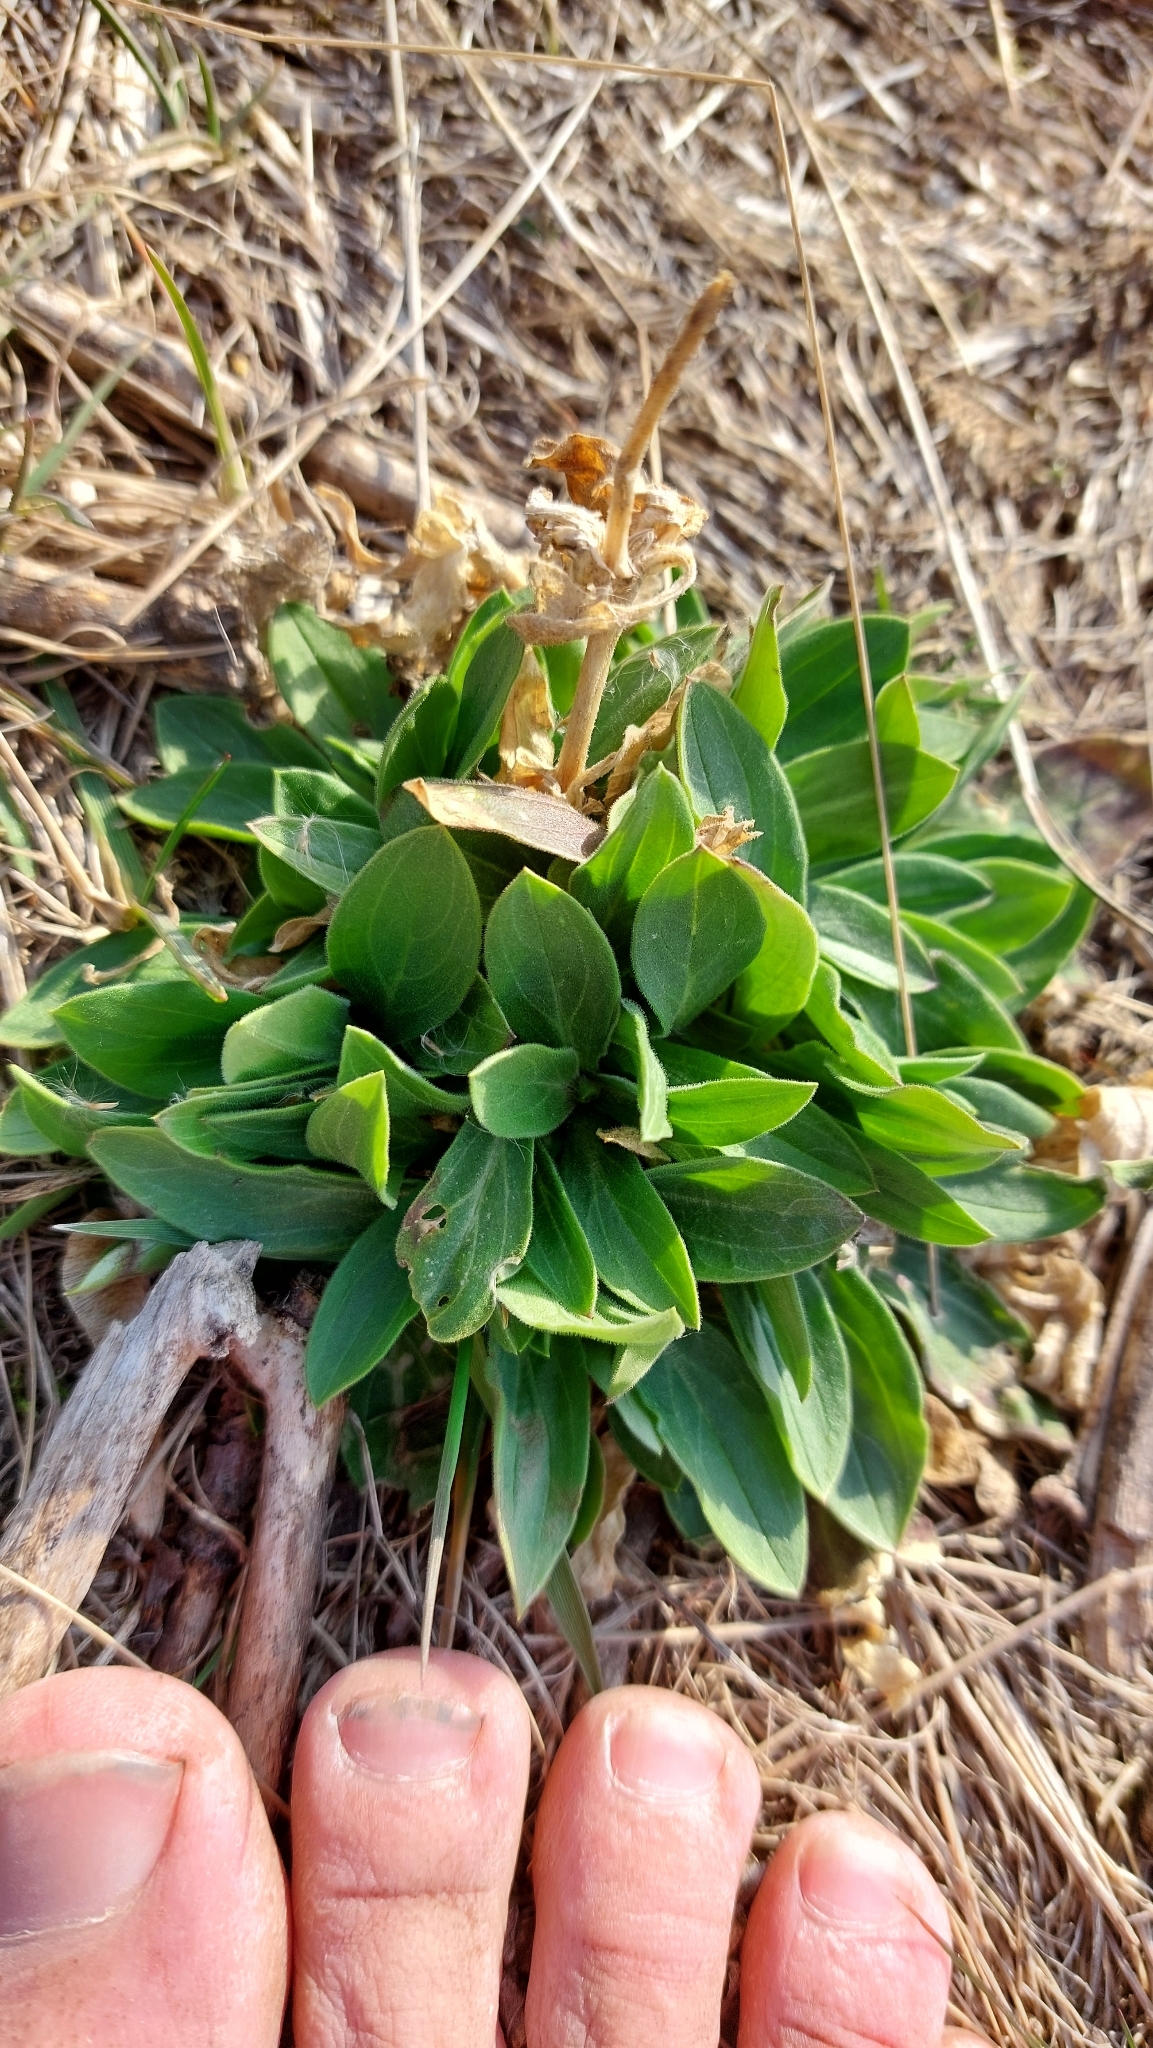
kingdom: Plantae
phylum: Tracheophyta
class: Magnoliopsida
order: Caryophyllales
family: Caryophyllaceae
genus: Silene
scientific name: Silene latifolia
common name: White campion
